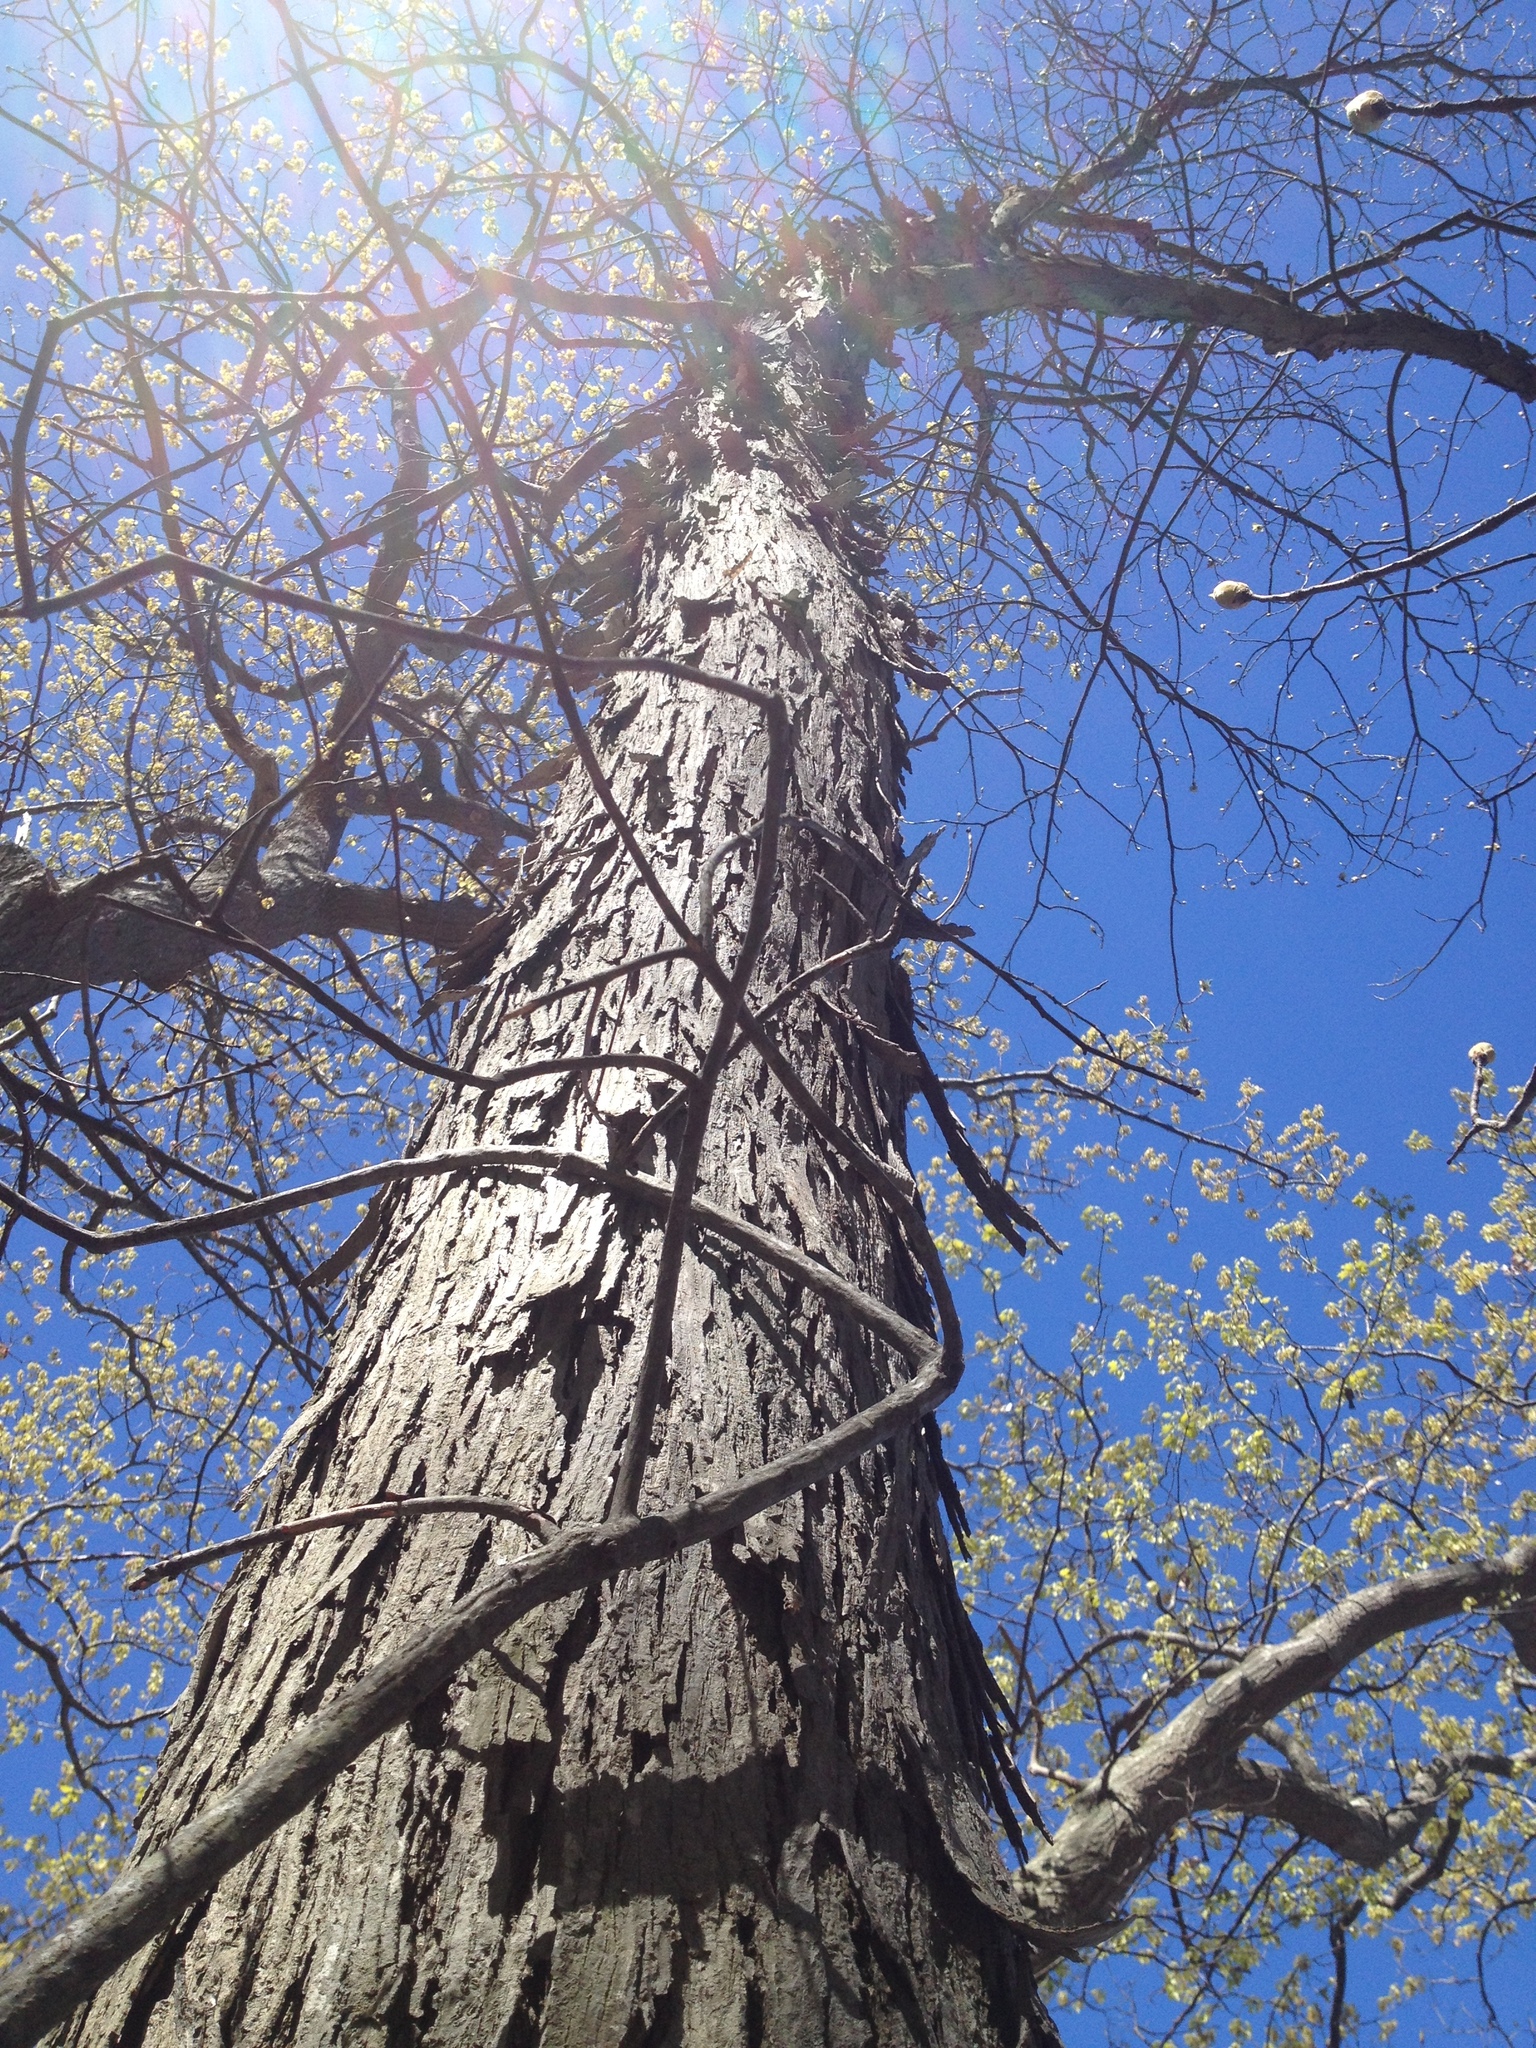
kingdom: Plantae
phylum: Tracheophyta
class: Magnoliopsida
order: Fagales
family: Juglandaceae
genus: Carya
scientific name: Carya ovata
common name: Shagbark hickory
